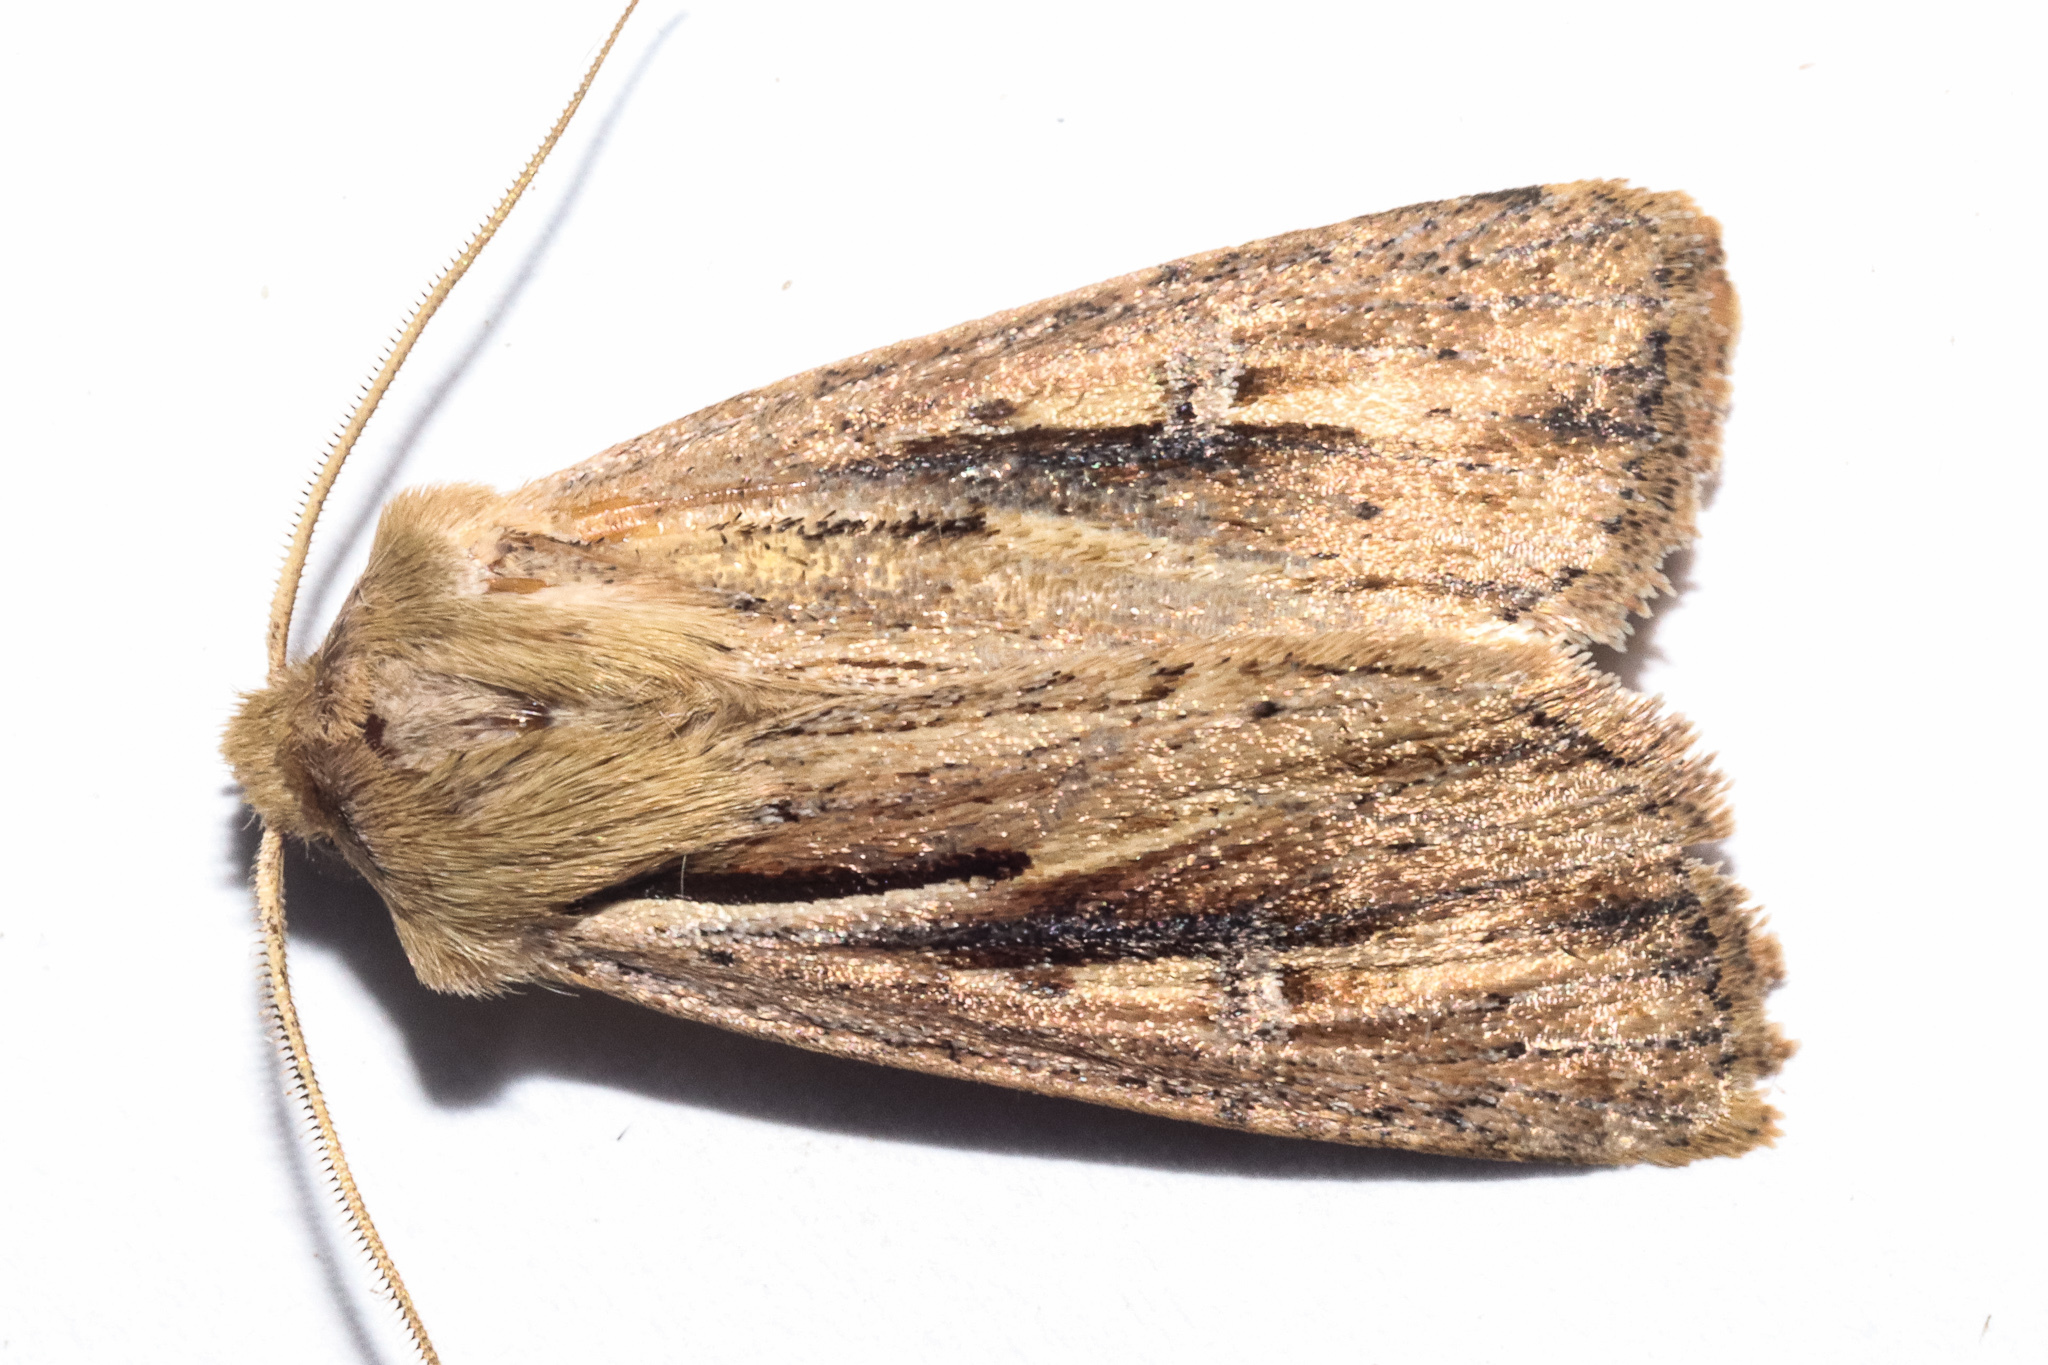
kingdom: Animalia
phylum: Arthropoda
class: Insecta
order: Lepidoptera
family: Noctuidae
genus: Ichneutica
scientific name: Ichneutica propria
